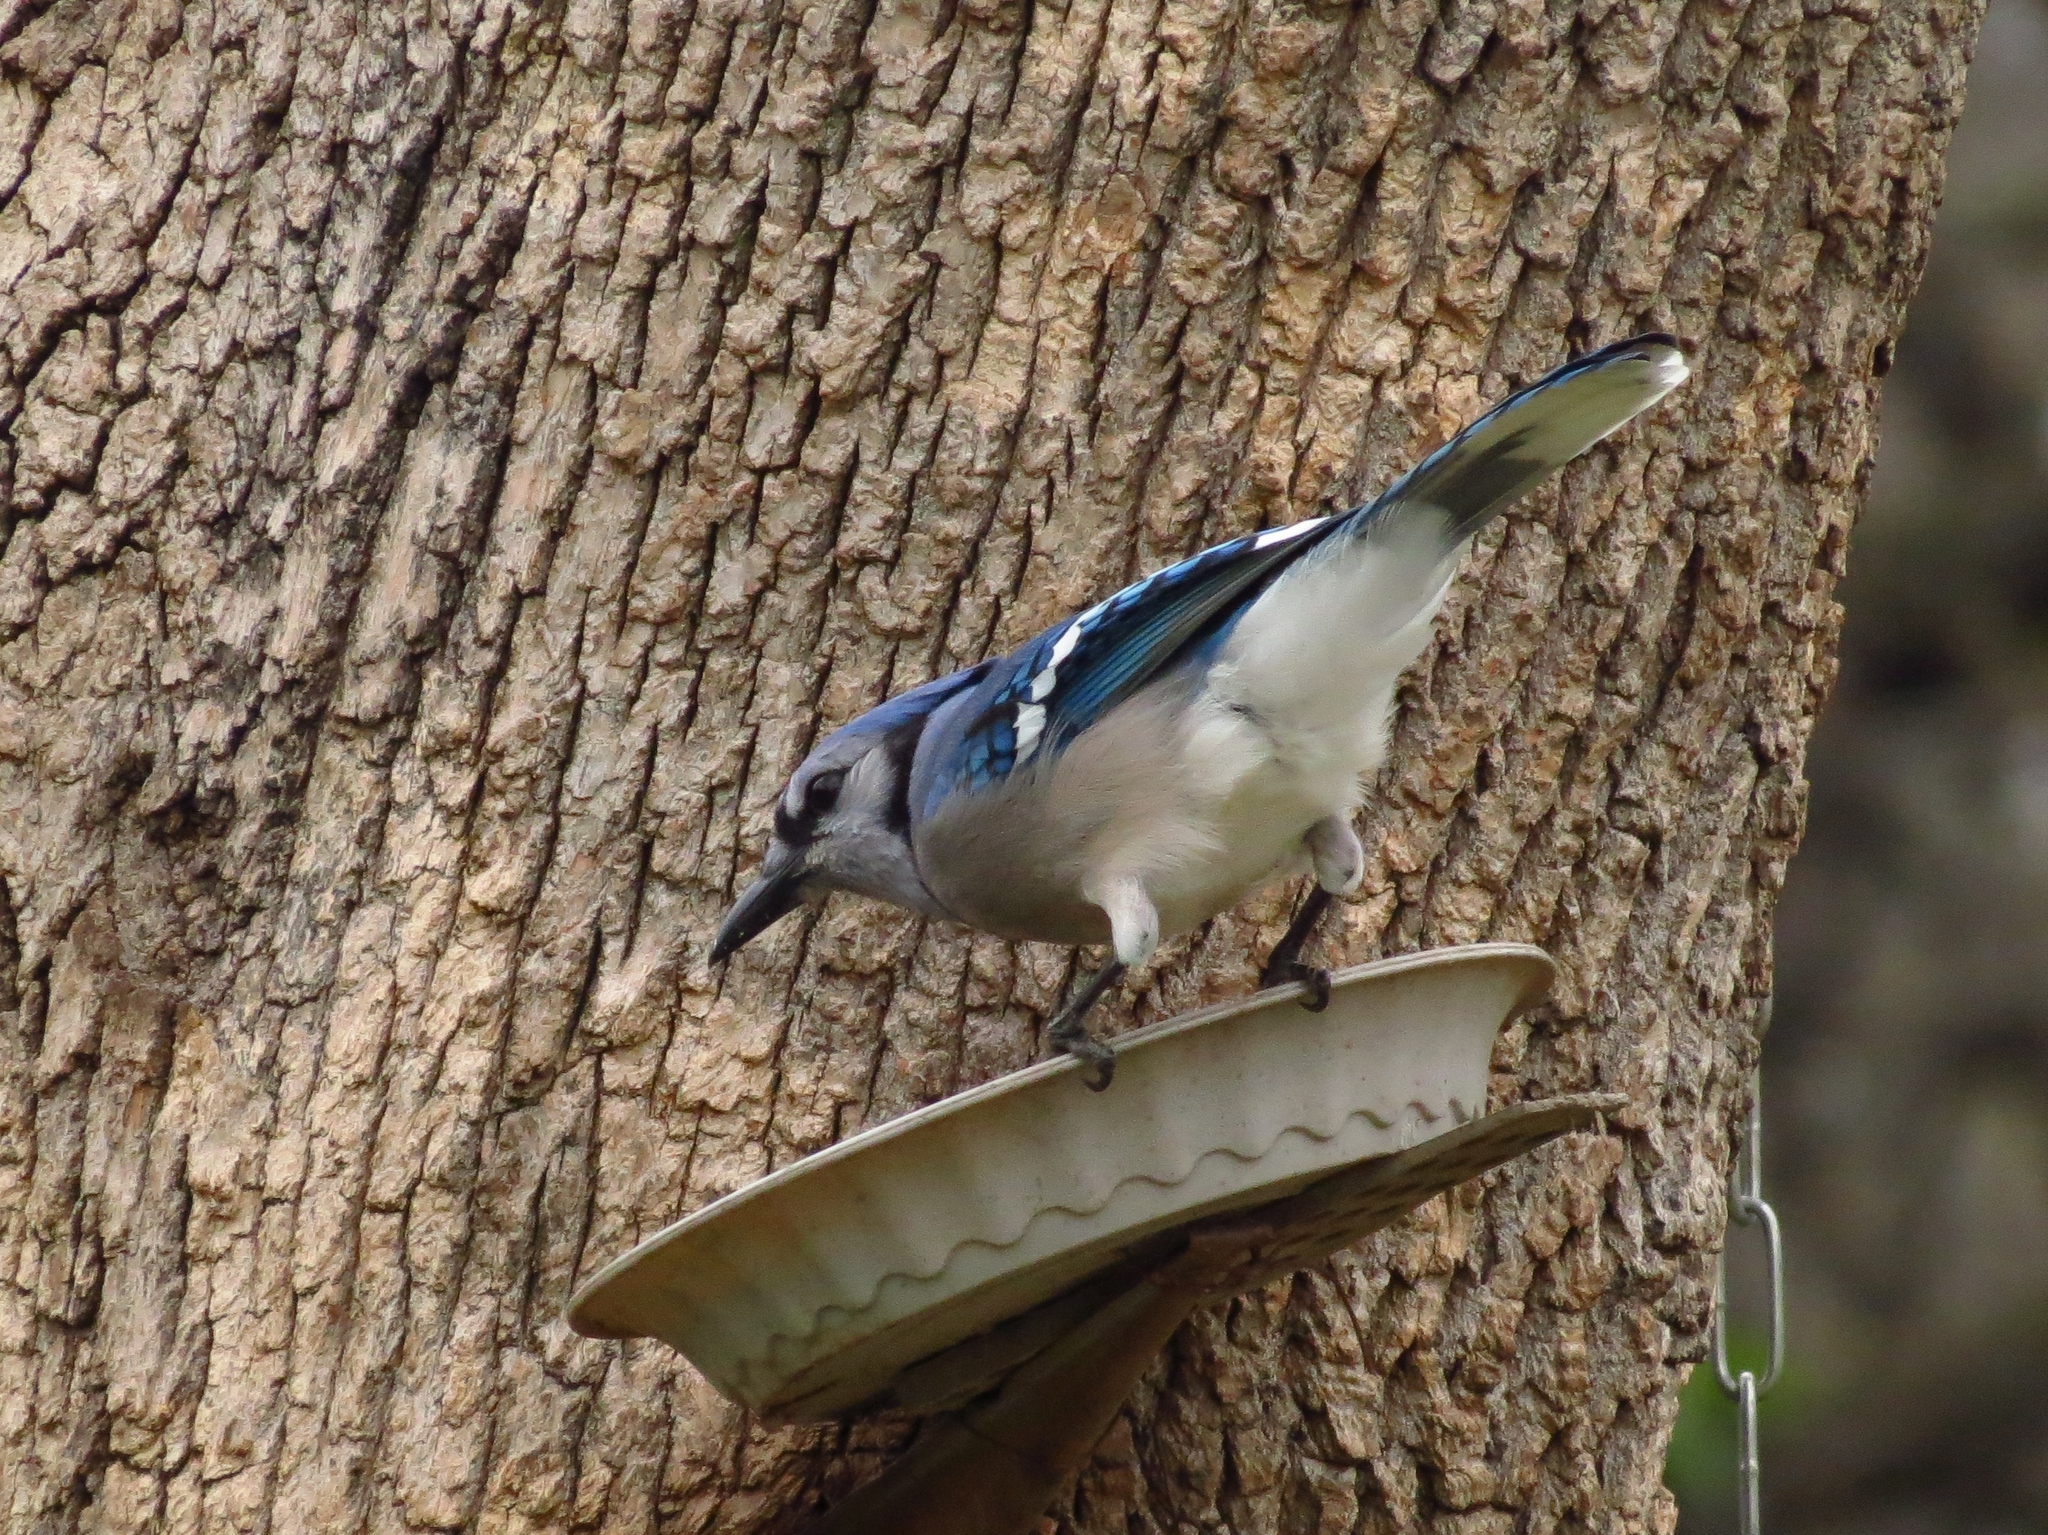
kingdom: Animalia
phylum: Chordata
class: Aves
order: Passeriformes
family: Corvidae
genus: Cyanocitta
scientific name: Cyanocitta cristata
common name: Blue jay
